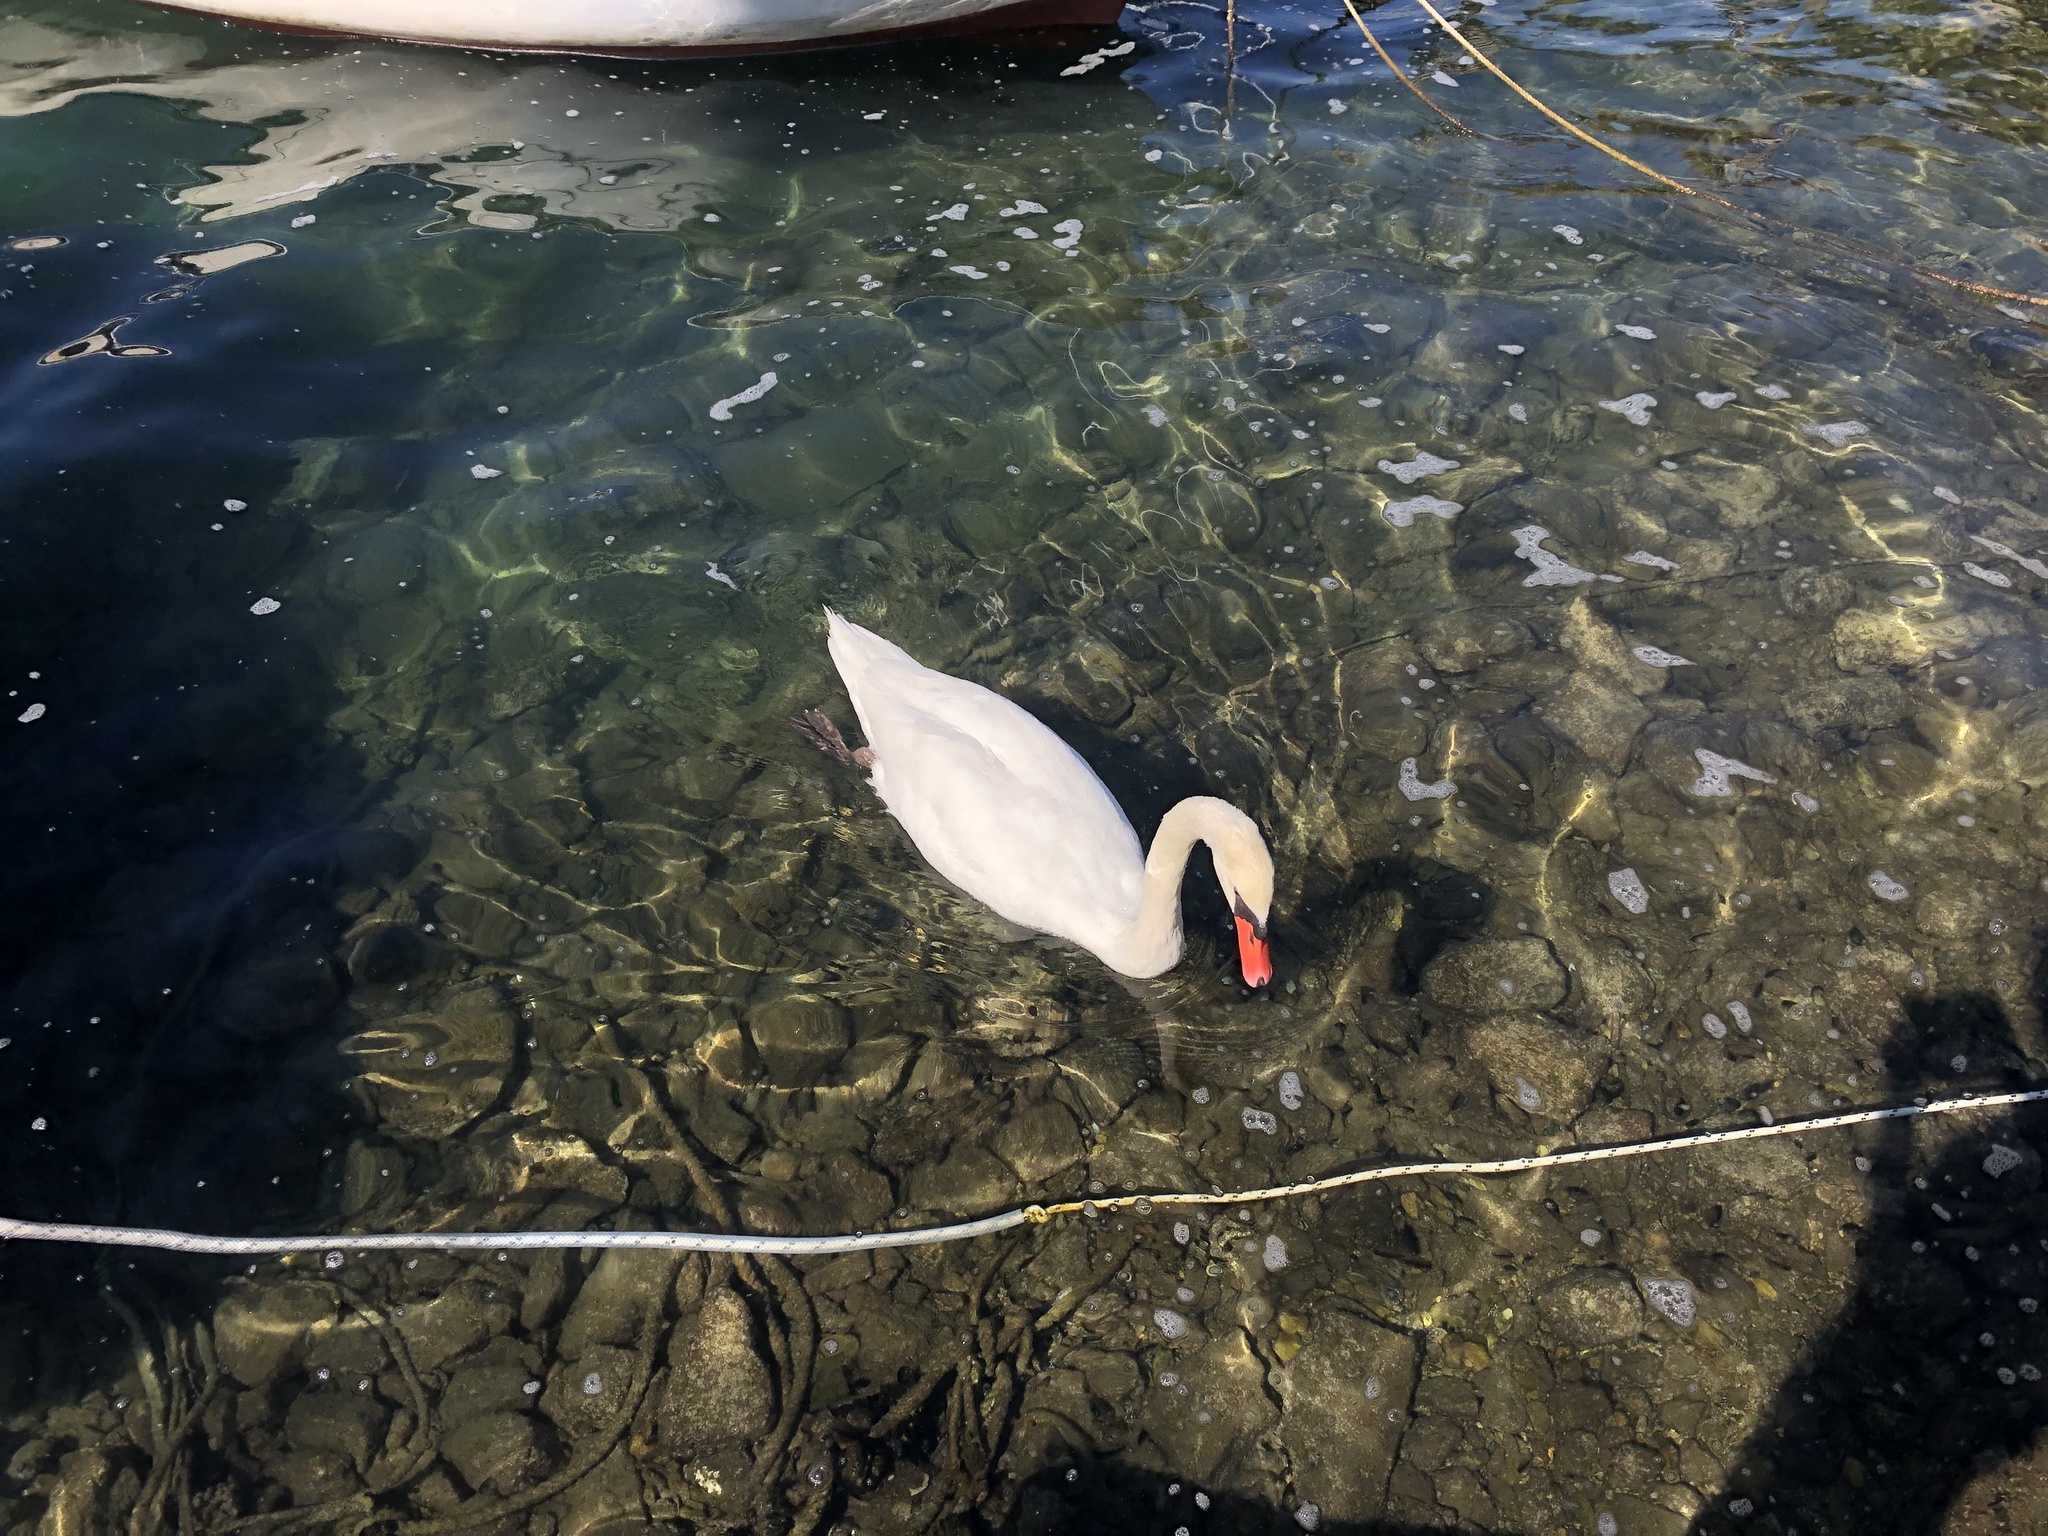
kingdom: Animalia
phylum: Chordata
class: Aves
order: Anseriformes
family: Anatidae
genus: Cygnus
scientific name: Cygnus olor
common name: Mute swan
